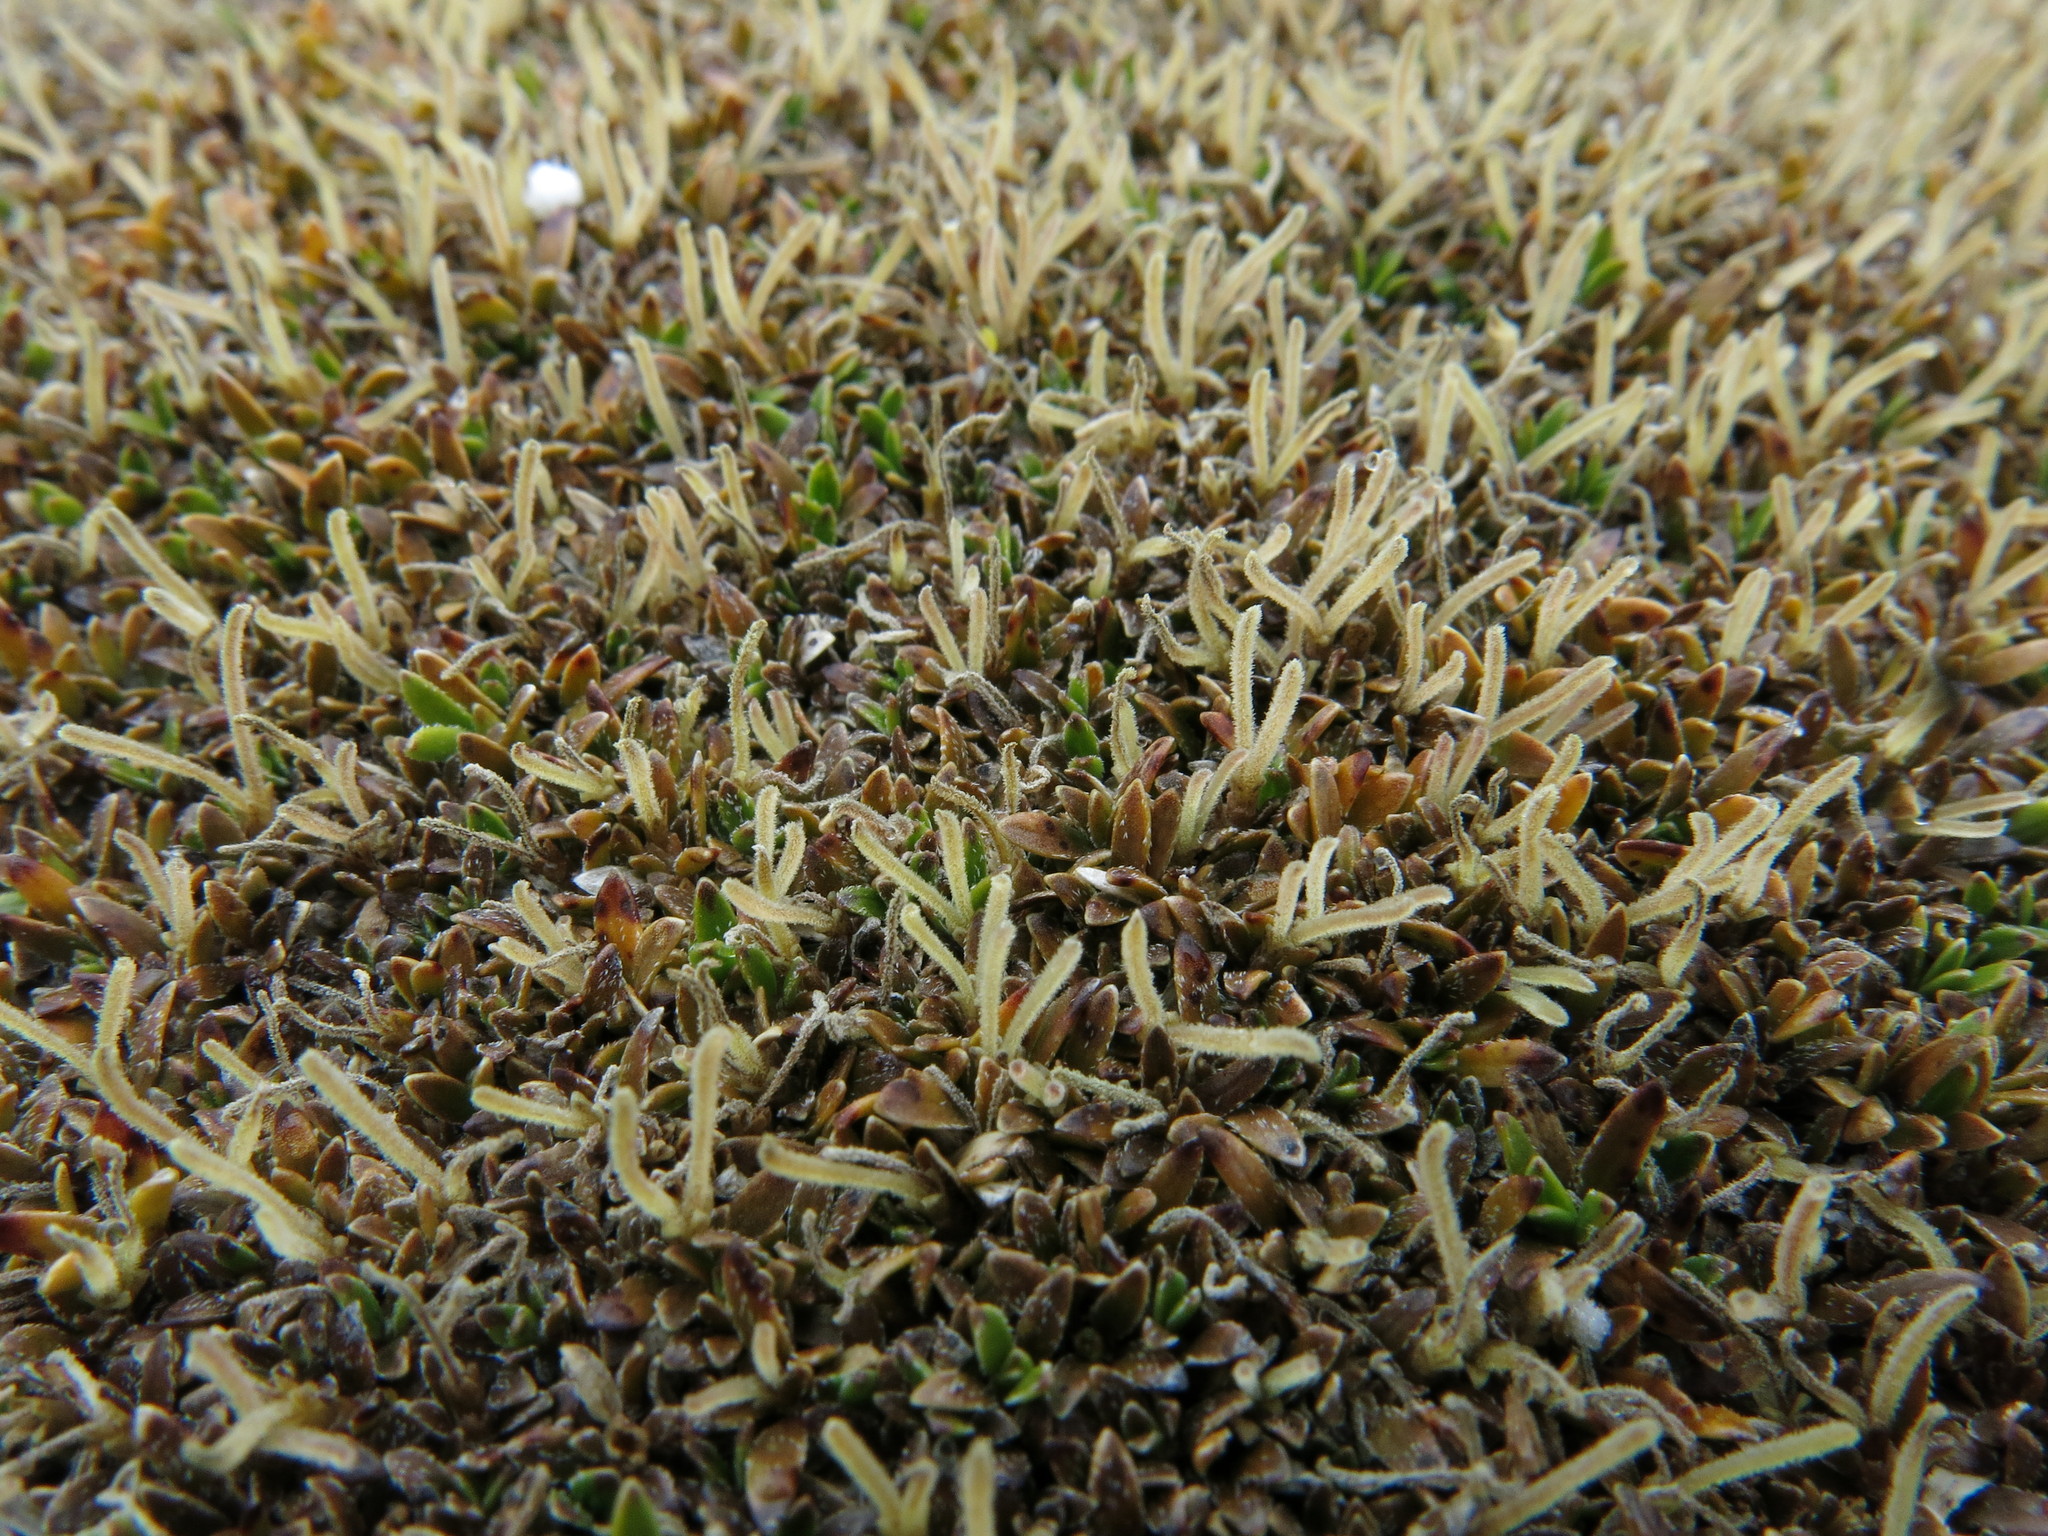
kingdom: Plantae
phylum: Tracheophyta
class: Magnoliopsida
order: Gentianales
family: Rubiaceae
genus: Coprosma
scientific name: Coprosma petriei
